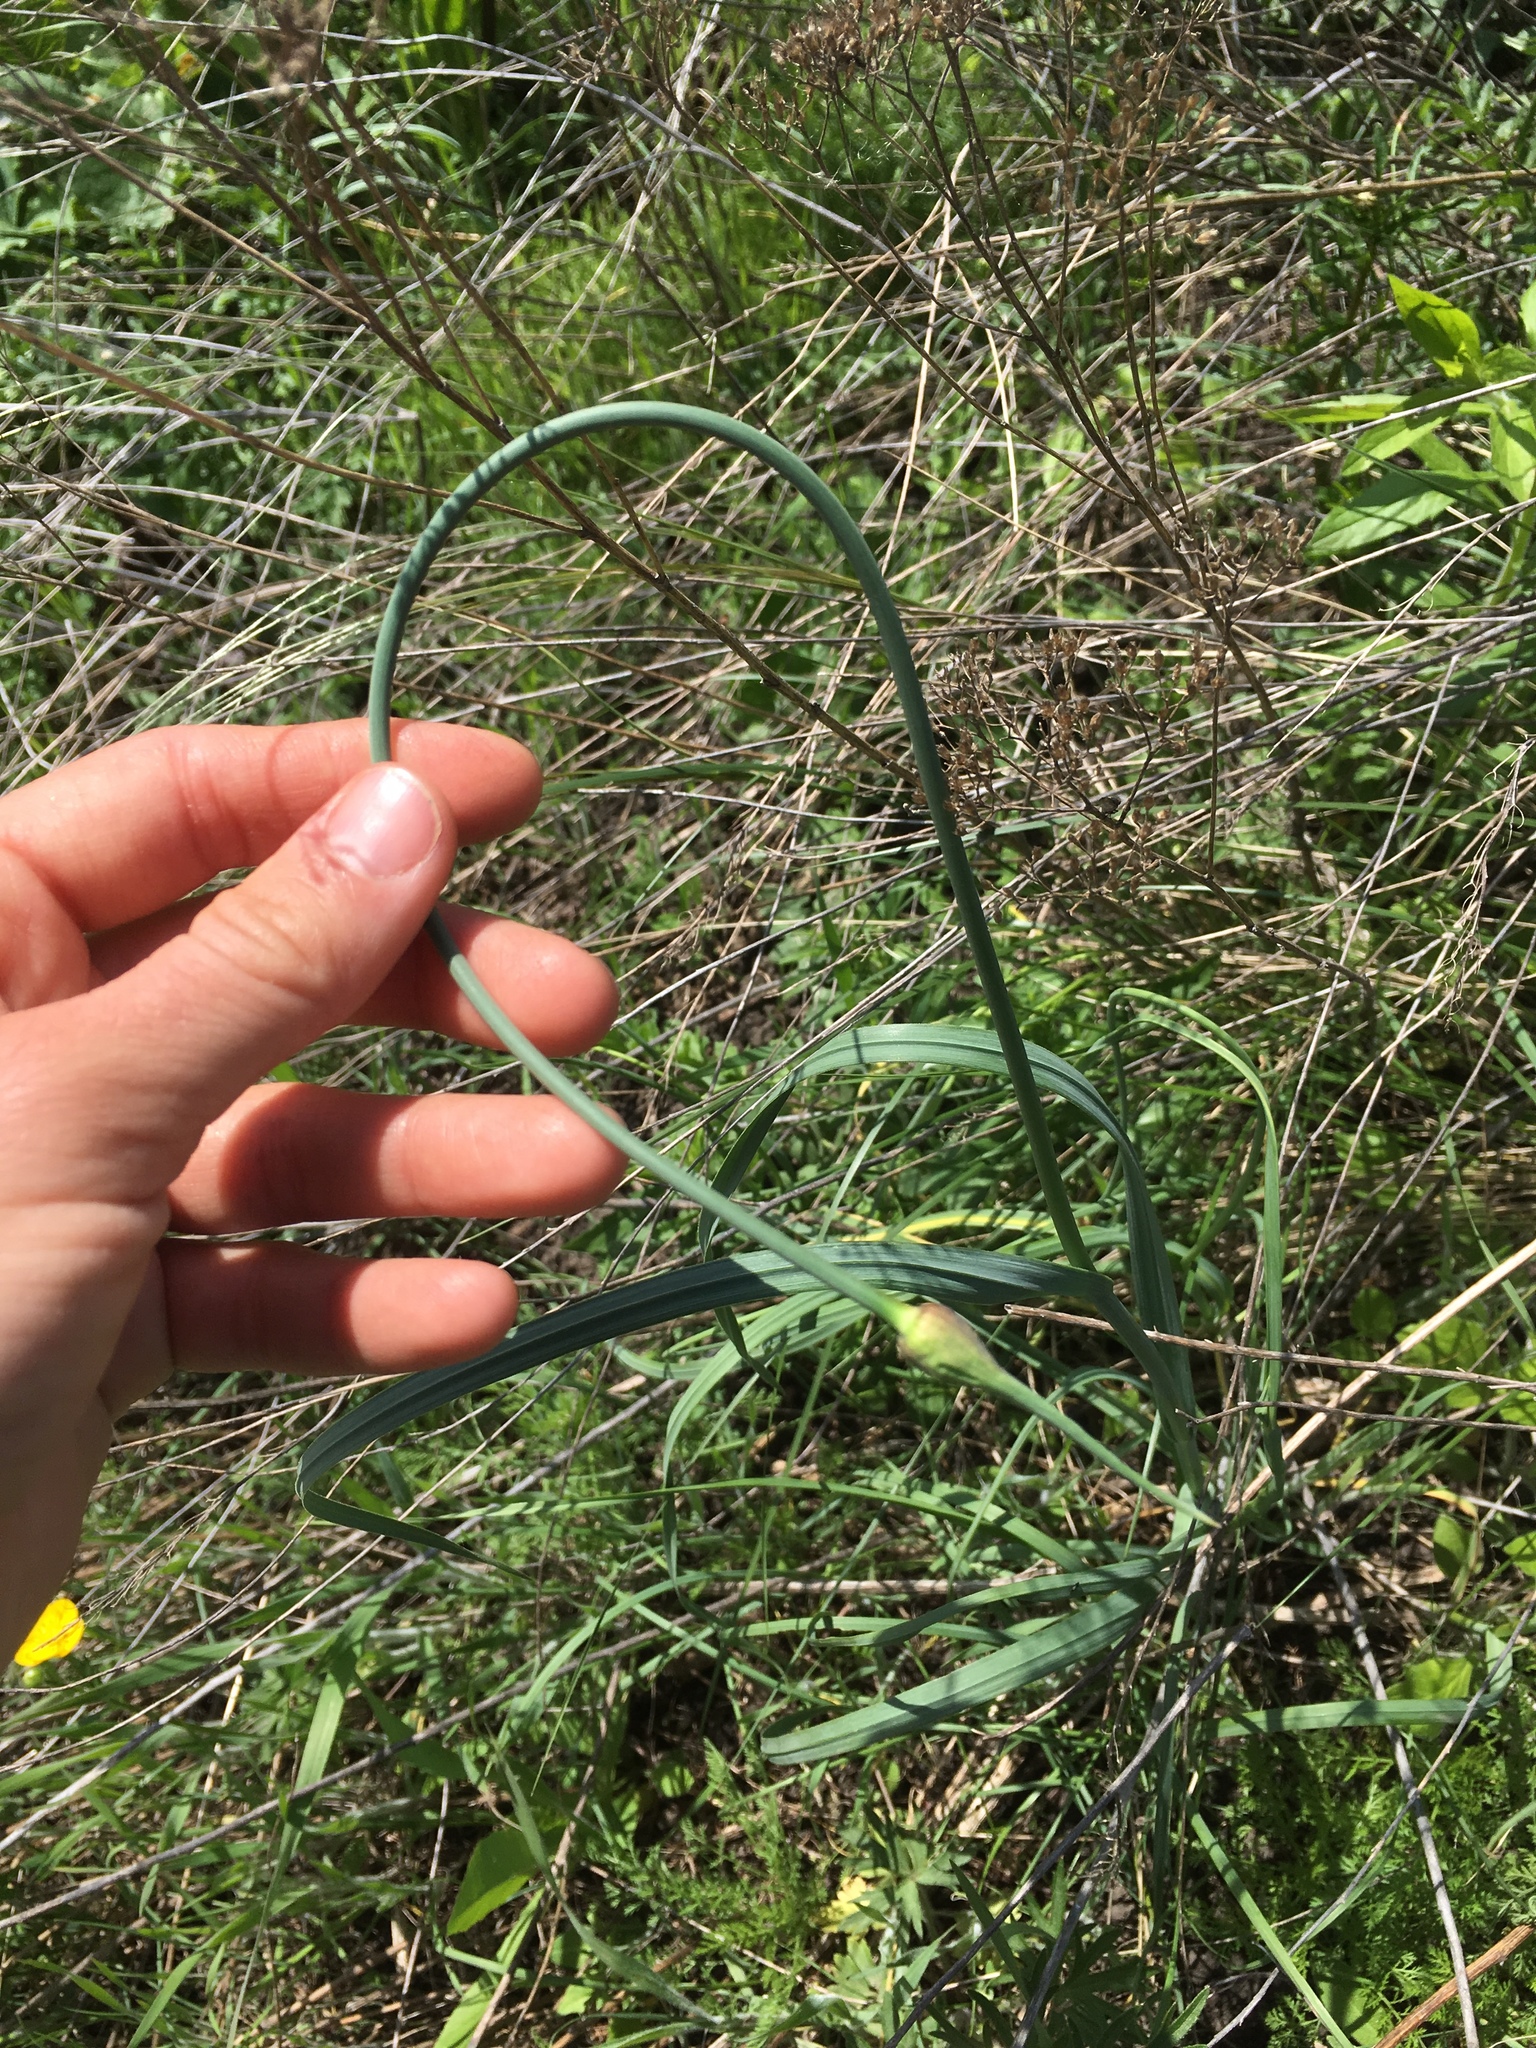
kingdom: Plantae
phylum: Tracheophyta
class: Liliopsida
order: Asparagales
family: Amaryllidaceae
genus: Allium
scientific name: Allium rotundum
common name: Sand leek
